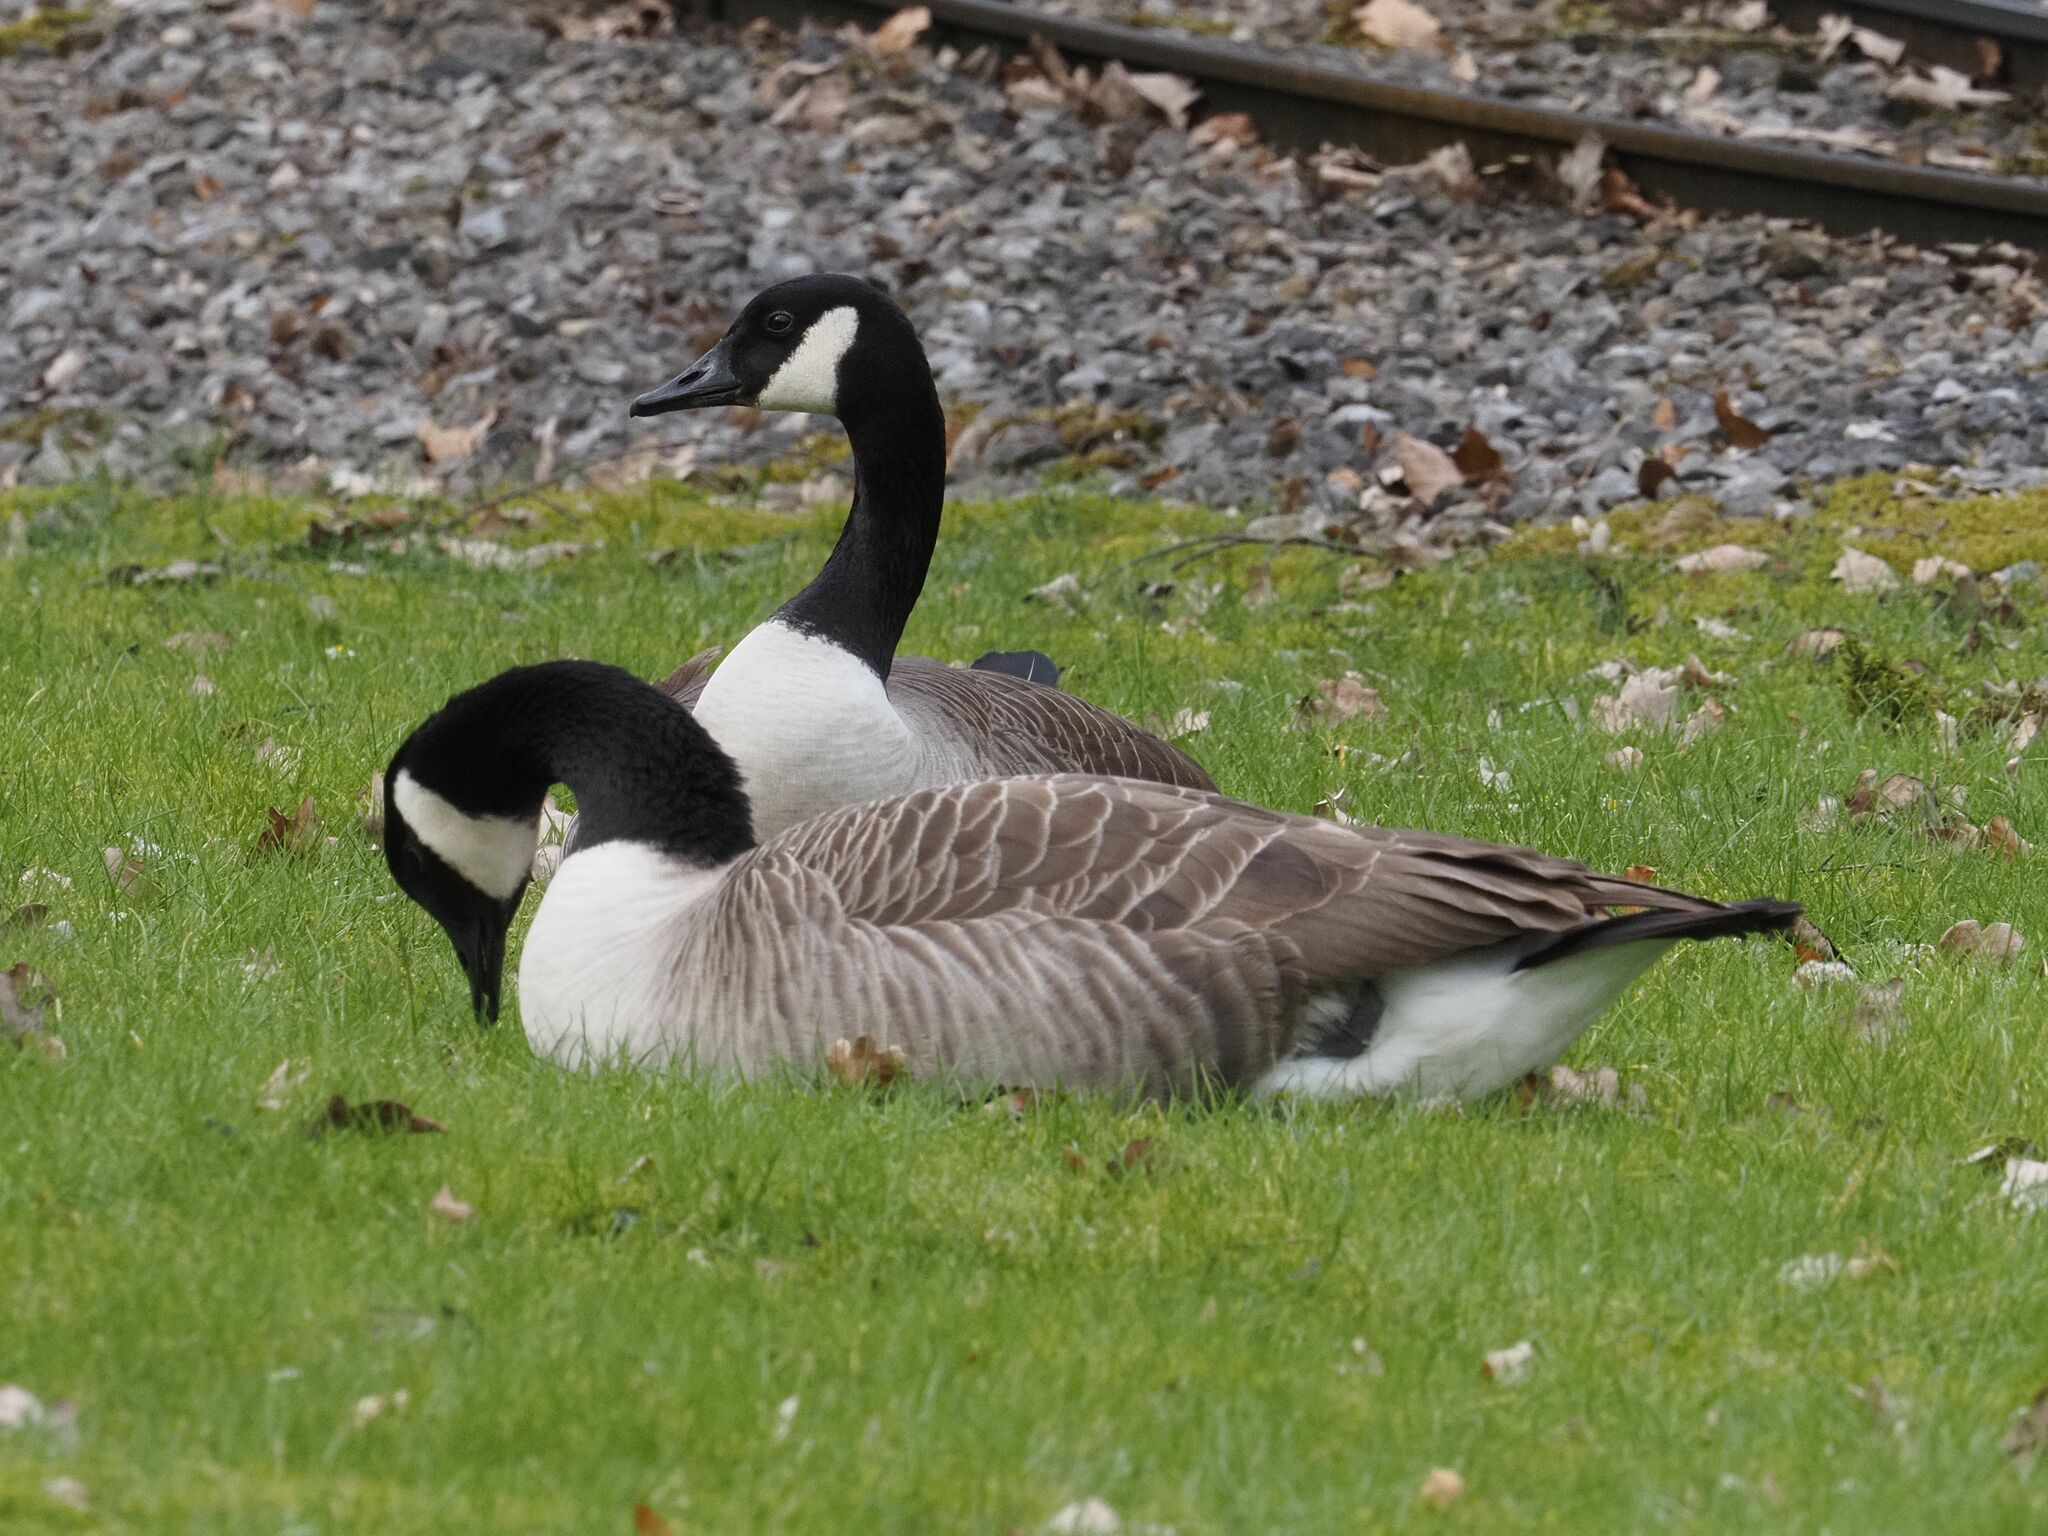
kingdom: Animalia
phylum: Chordata
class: Aves
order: Anseriformes
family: Anatidae
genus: Branta
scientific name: Branta canadensis
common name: Canada goose
